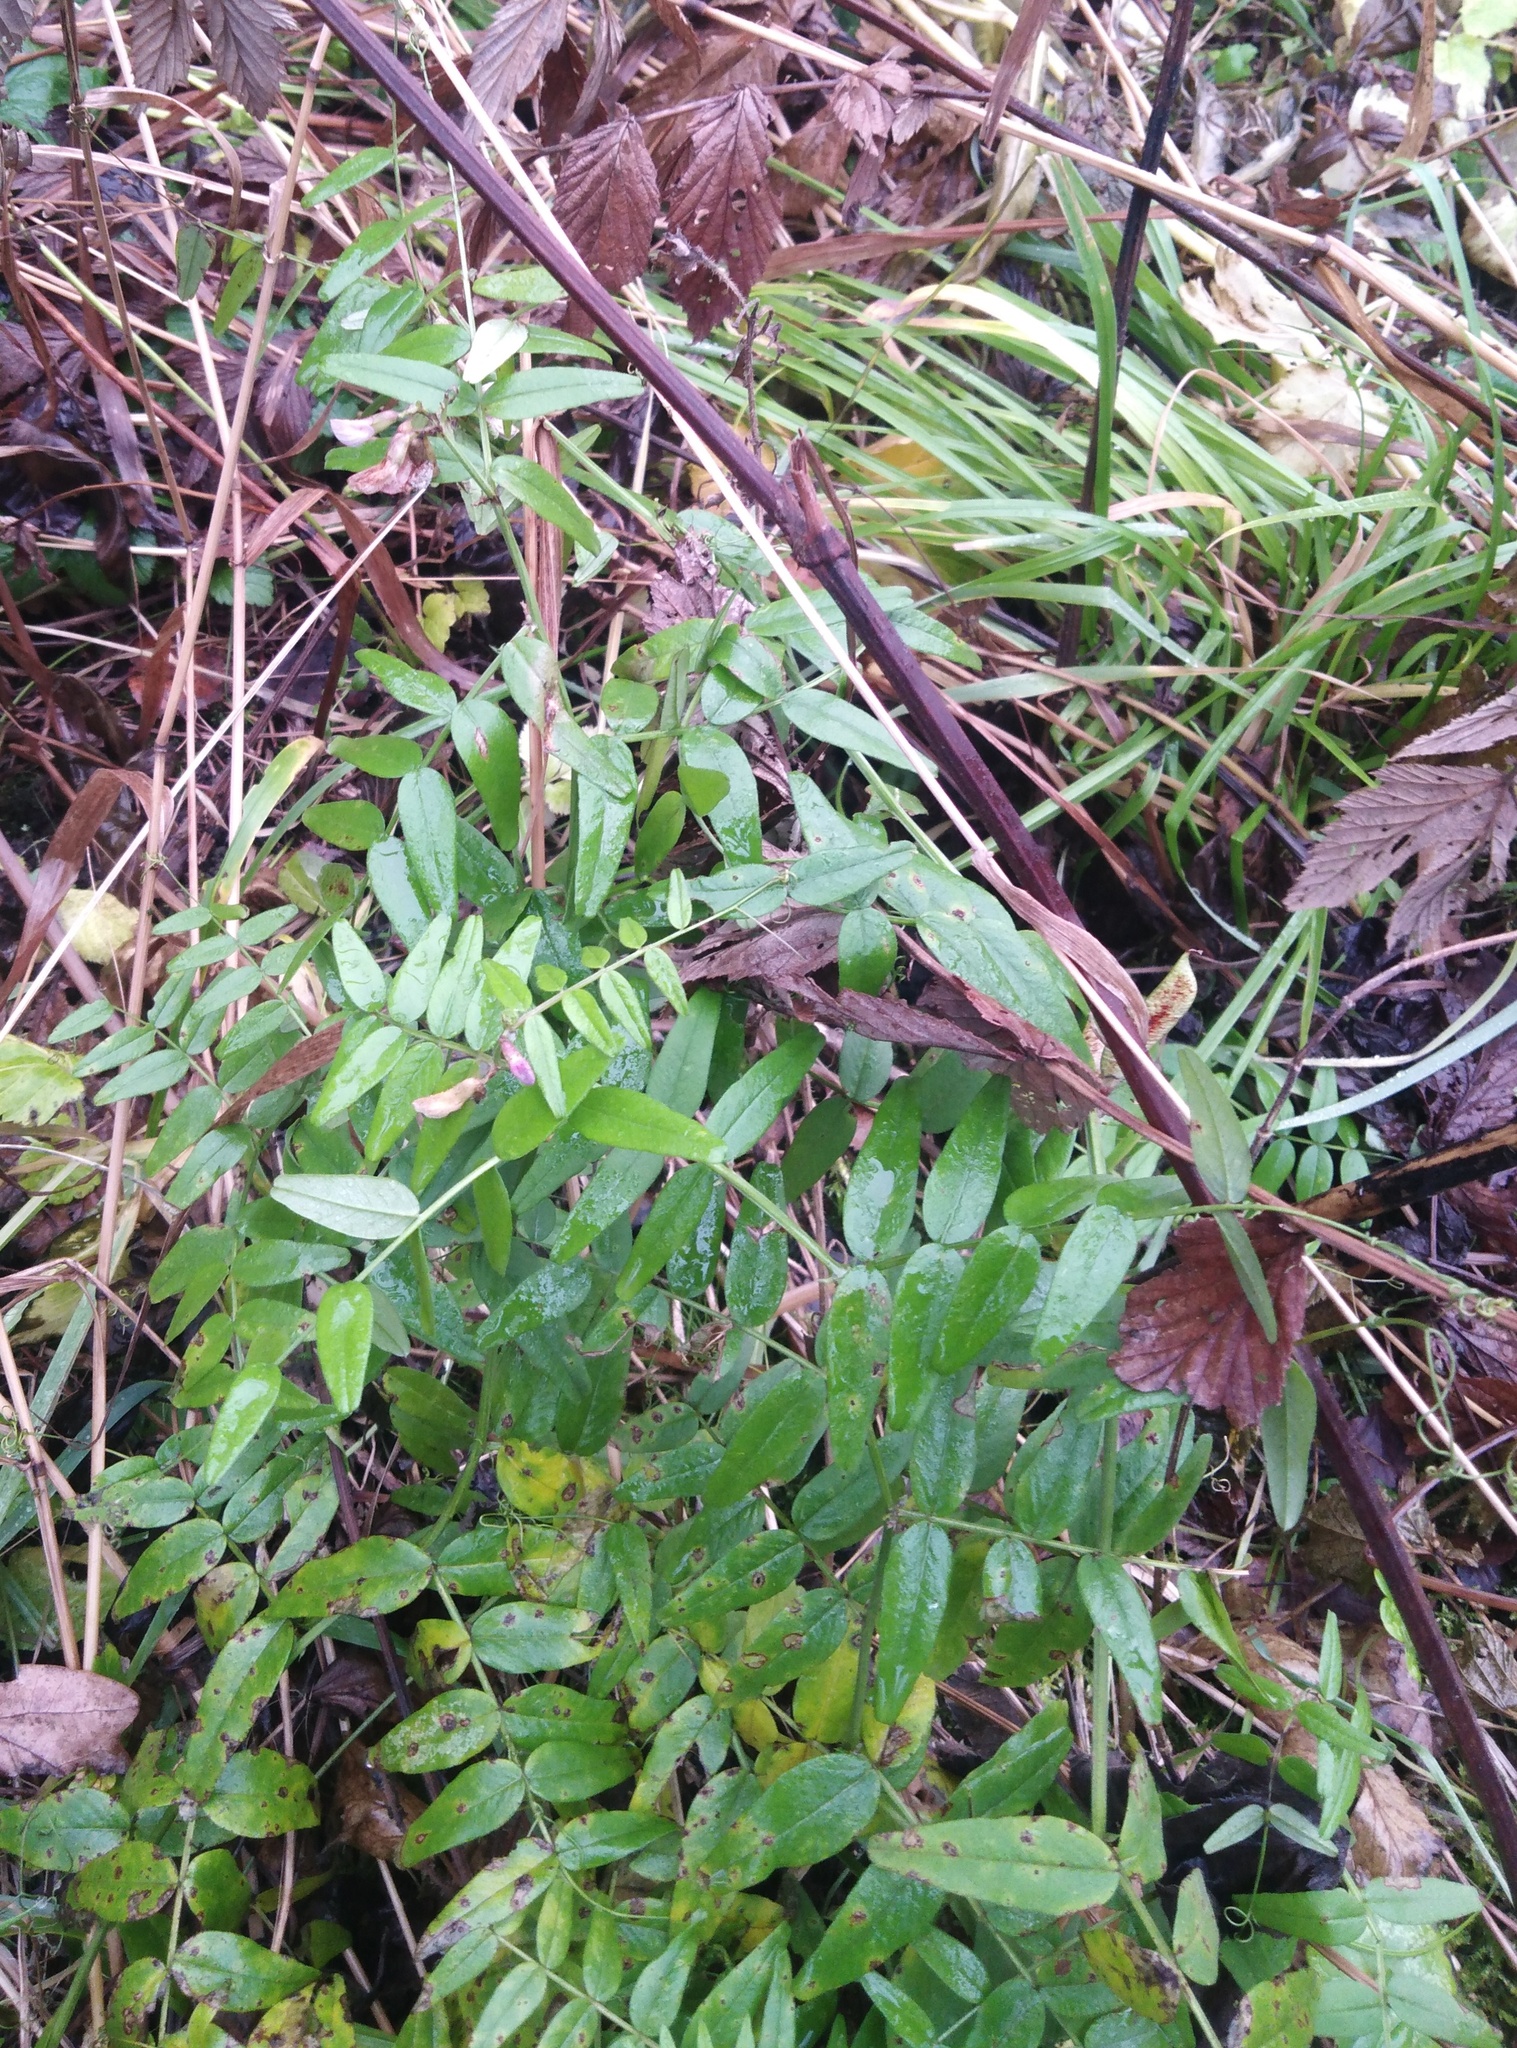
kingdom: Plantae
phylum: Tracheophyta
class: Magnoliopsida
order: Fabales
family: Fabaceae
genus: Vicia
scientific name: Vicia sepium
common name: Bush vetch
